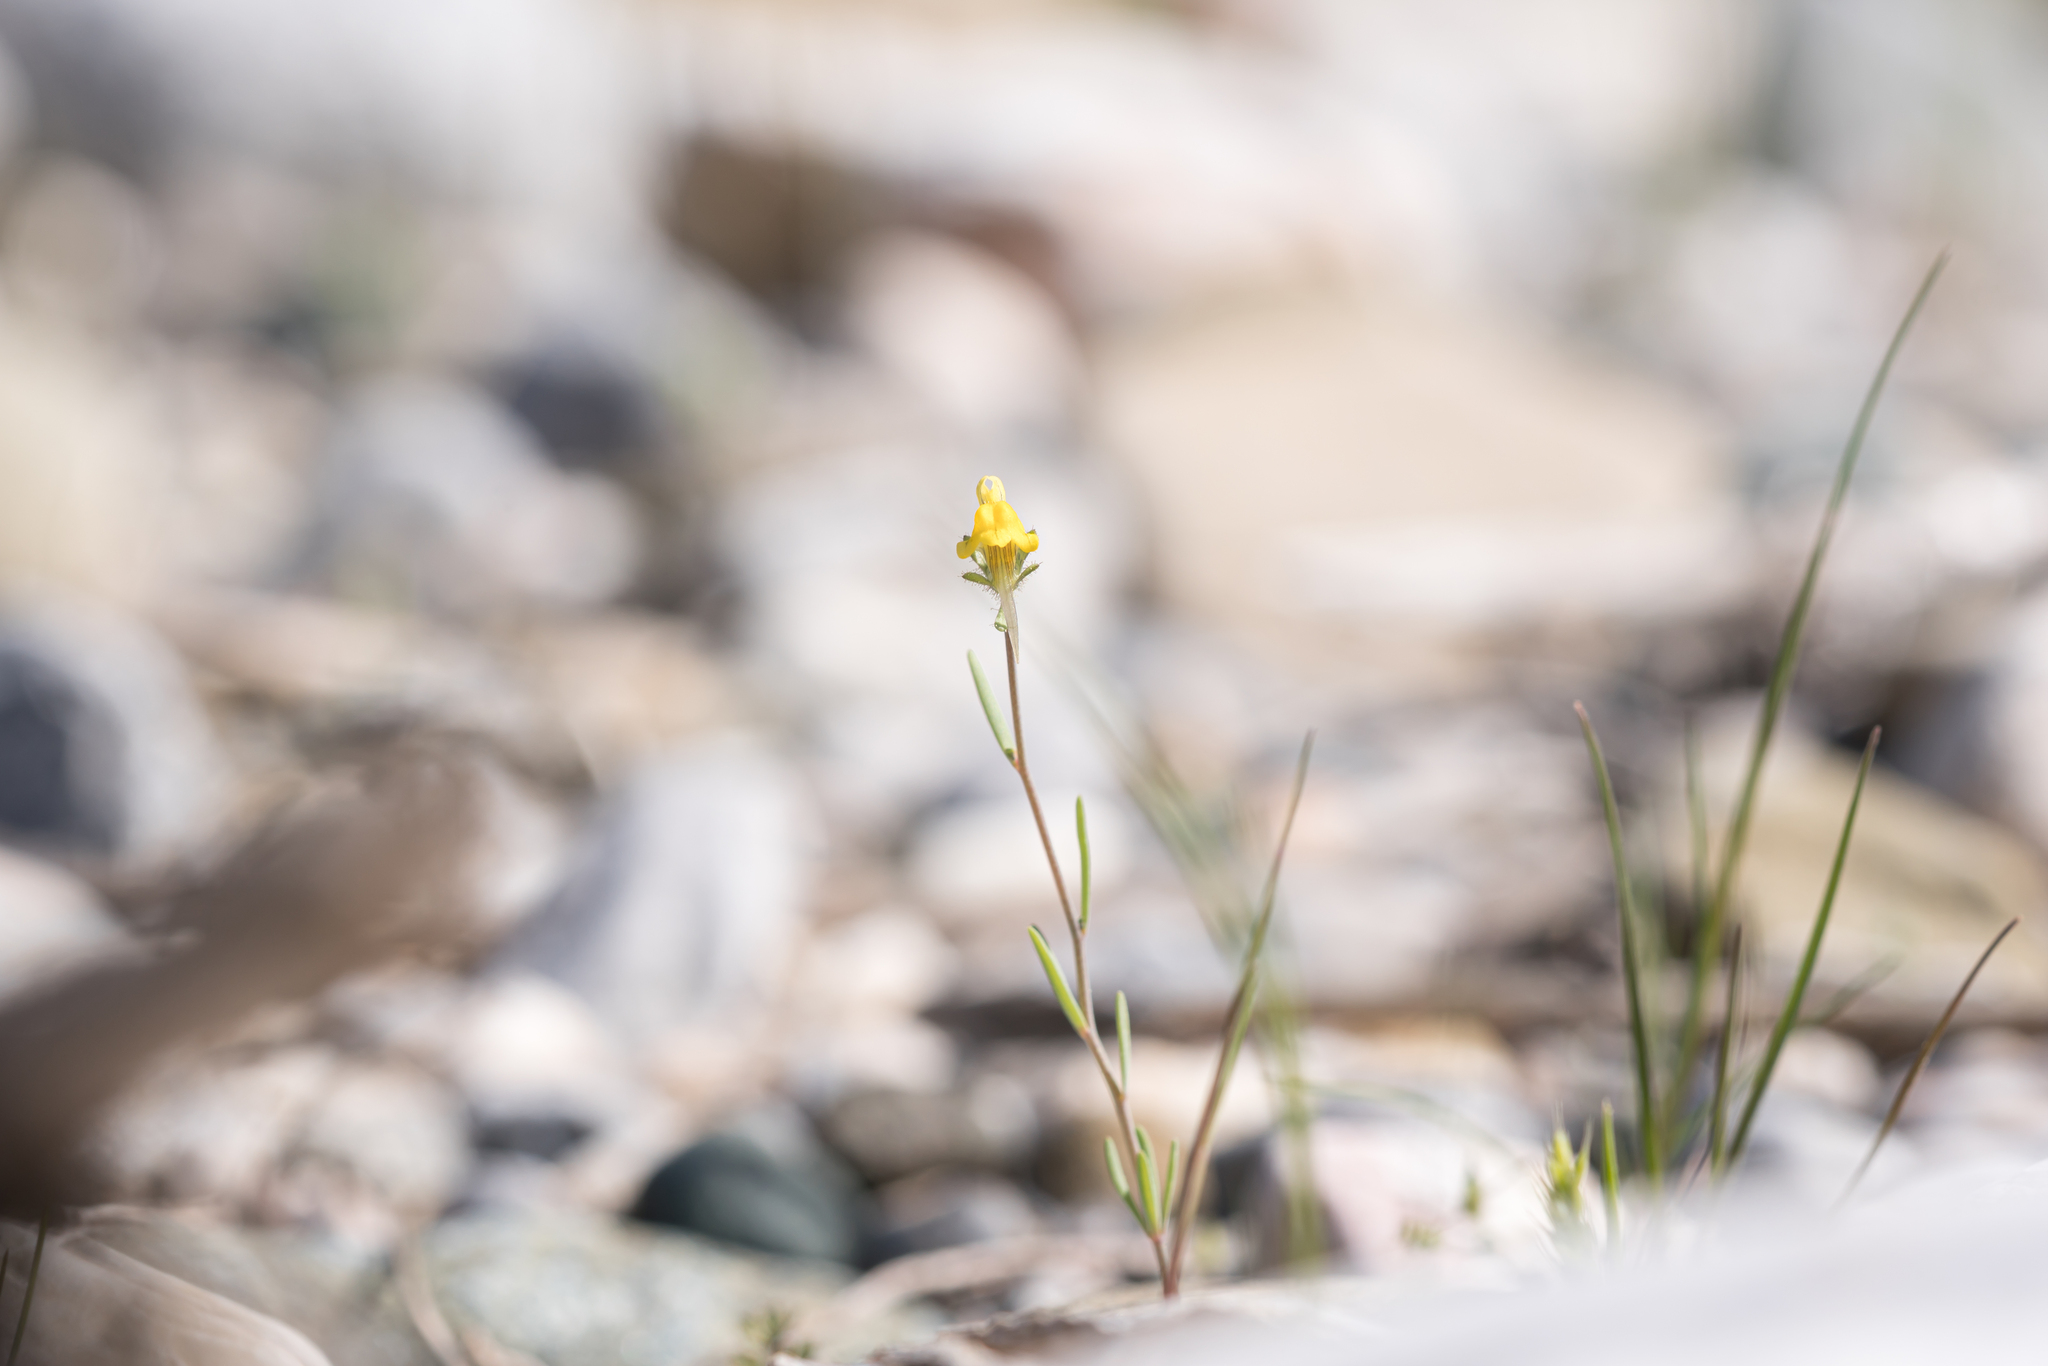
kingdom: Plantae
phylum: Tracheophyta
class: Magnoliopsida
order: Lamiales
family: Plantaginaceae
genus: Linaria
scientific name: Linaria simplex
